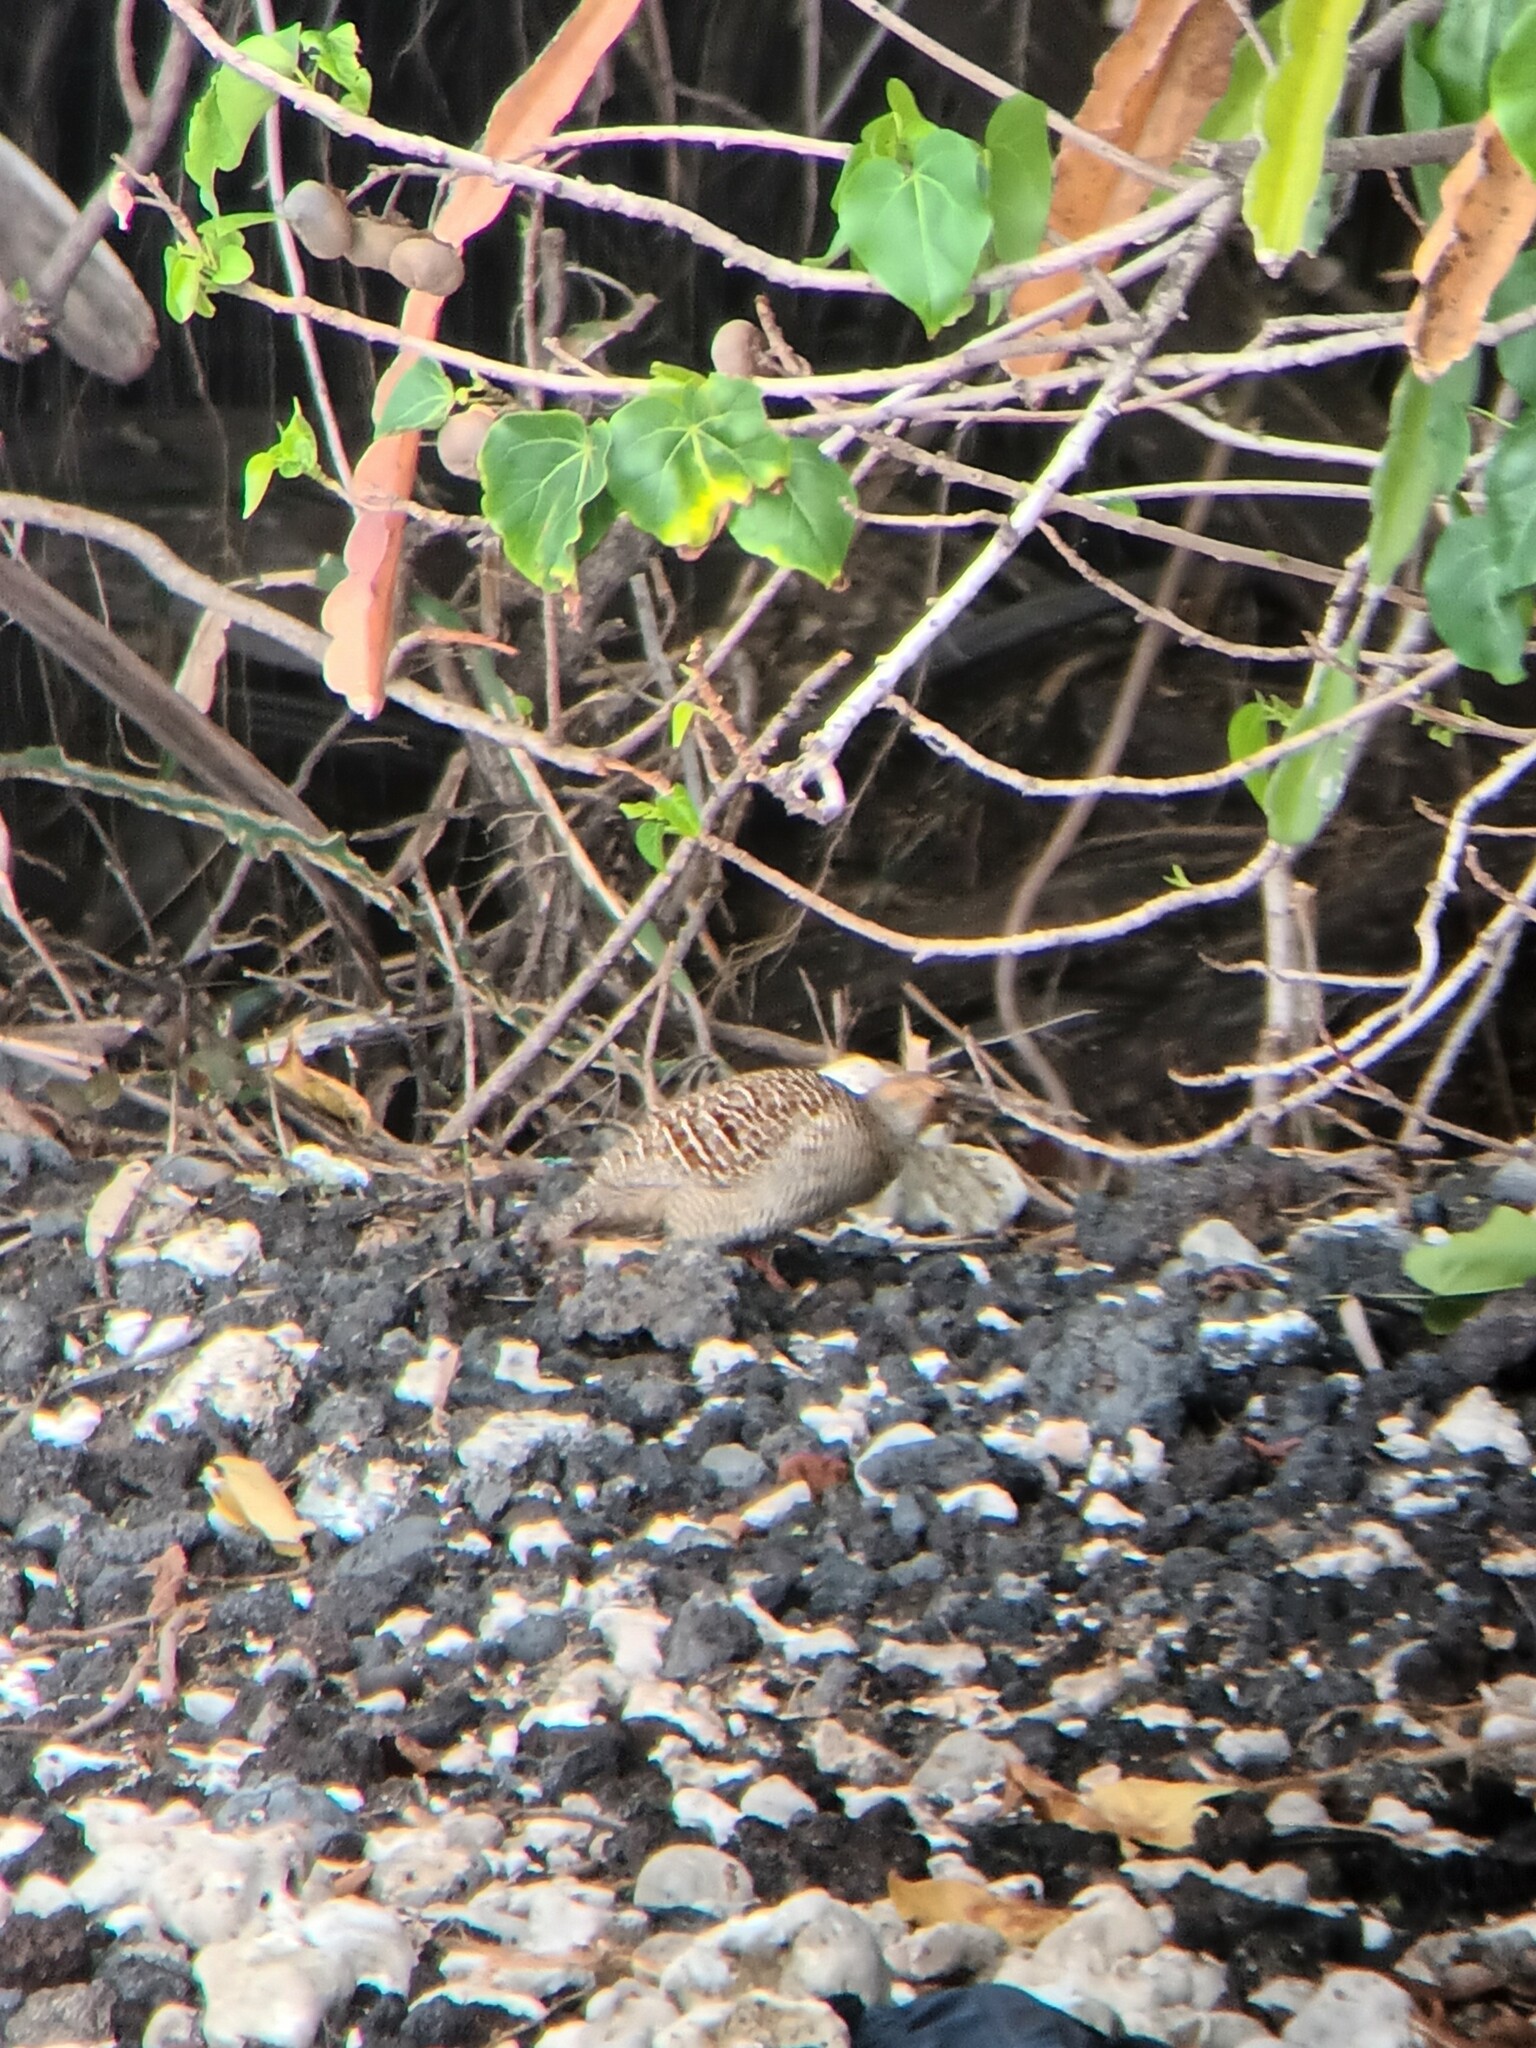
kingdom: Animalia
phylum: Chordata
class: Aves
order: Galliformes
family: Phasianidae
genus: Ortygornis
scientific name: Ortygornis pondicerianus
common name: Grey francolin
